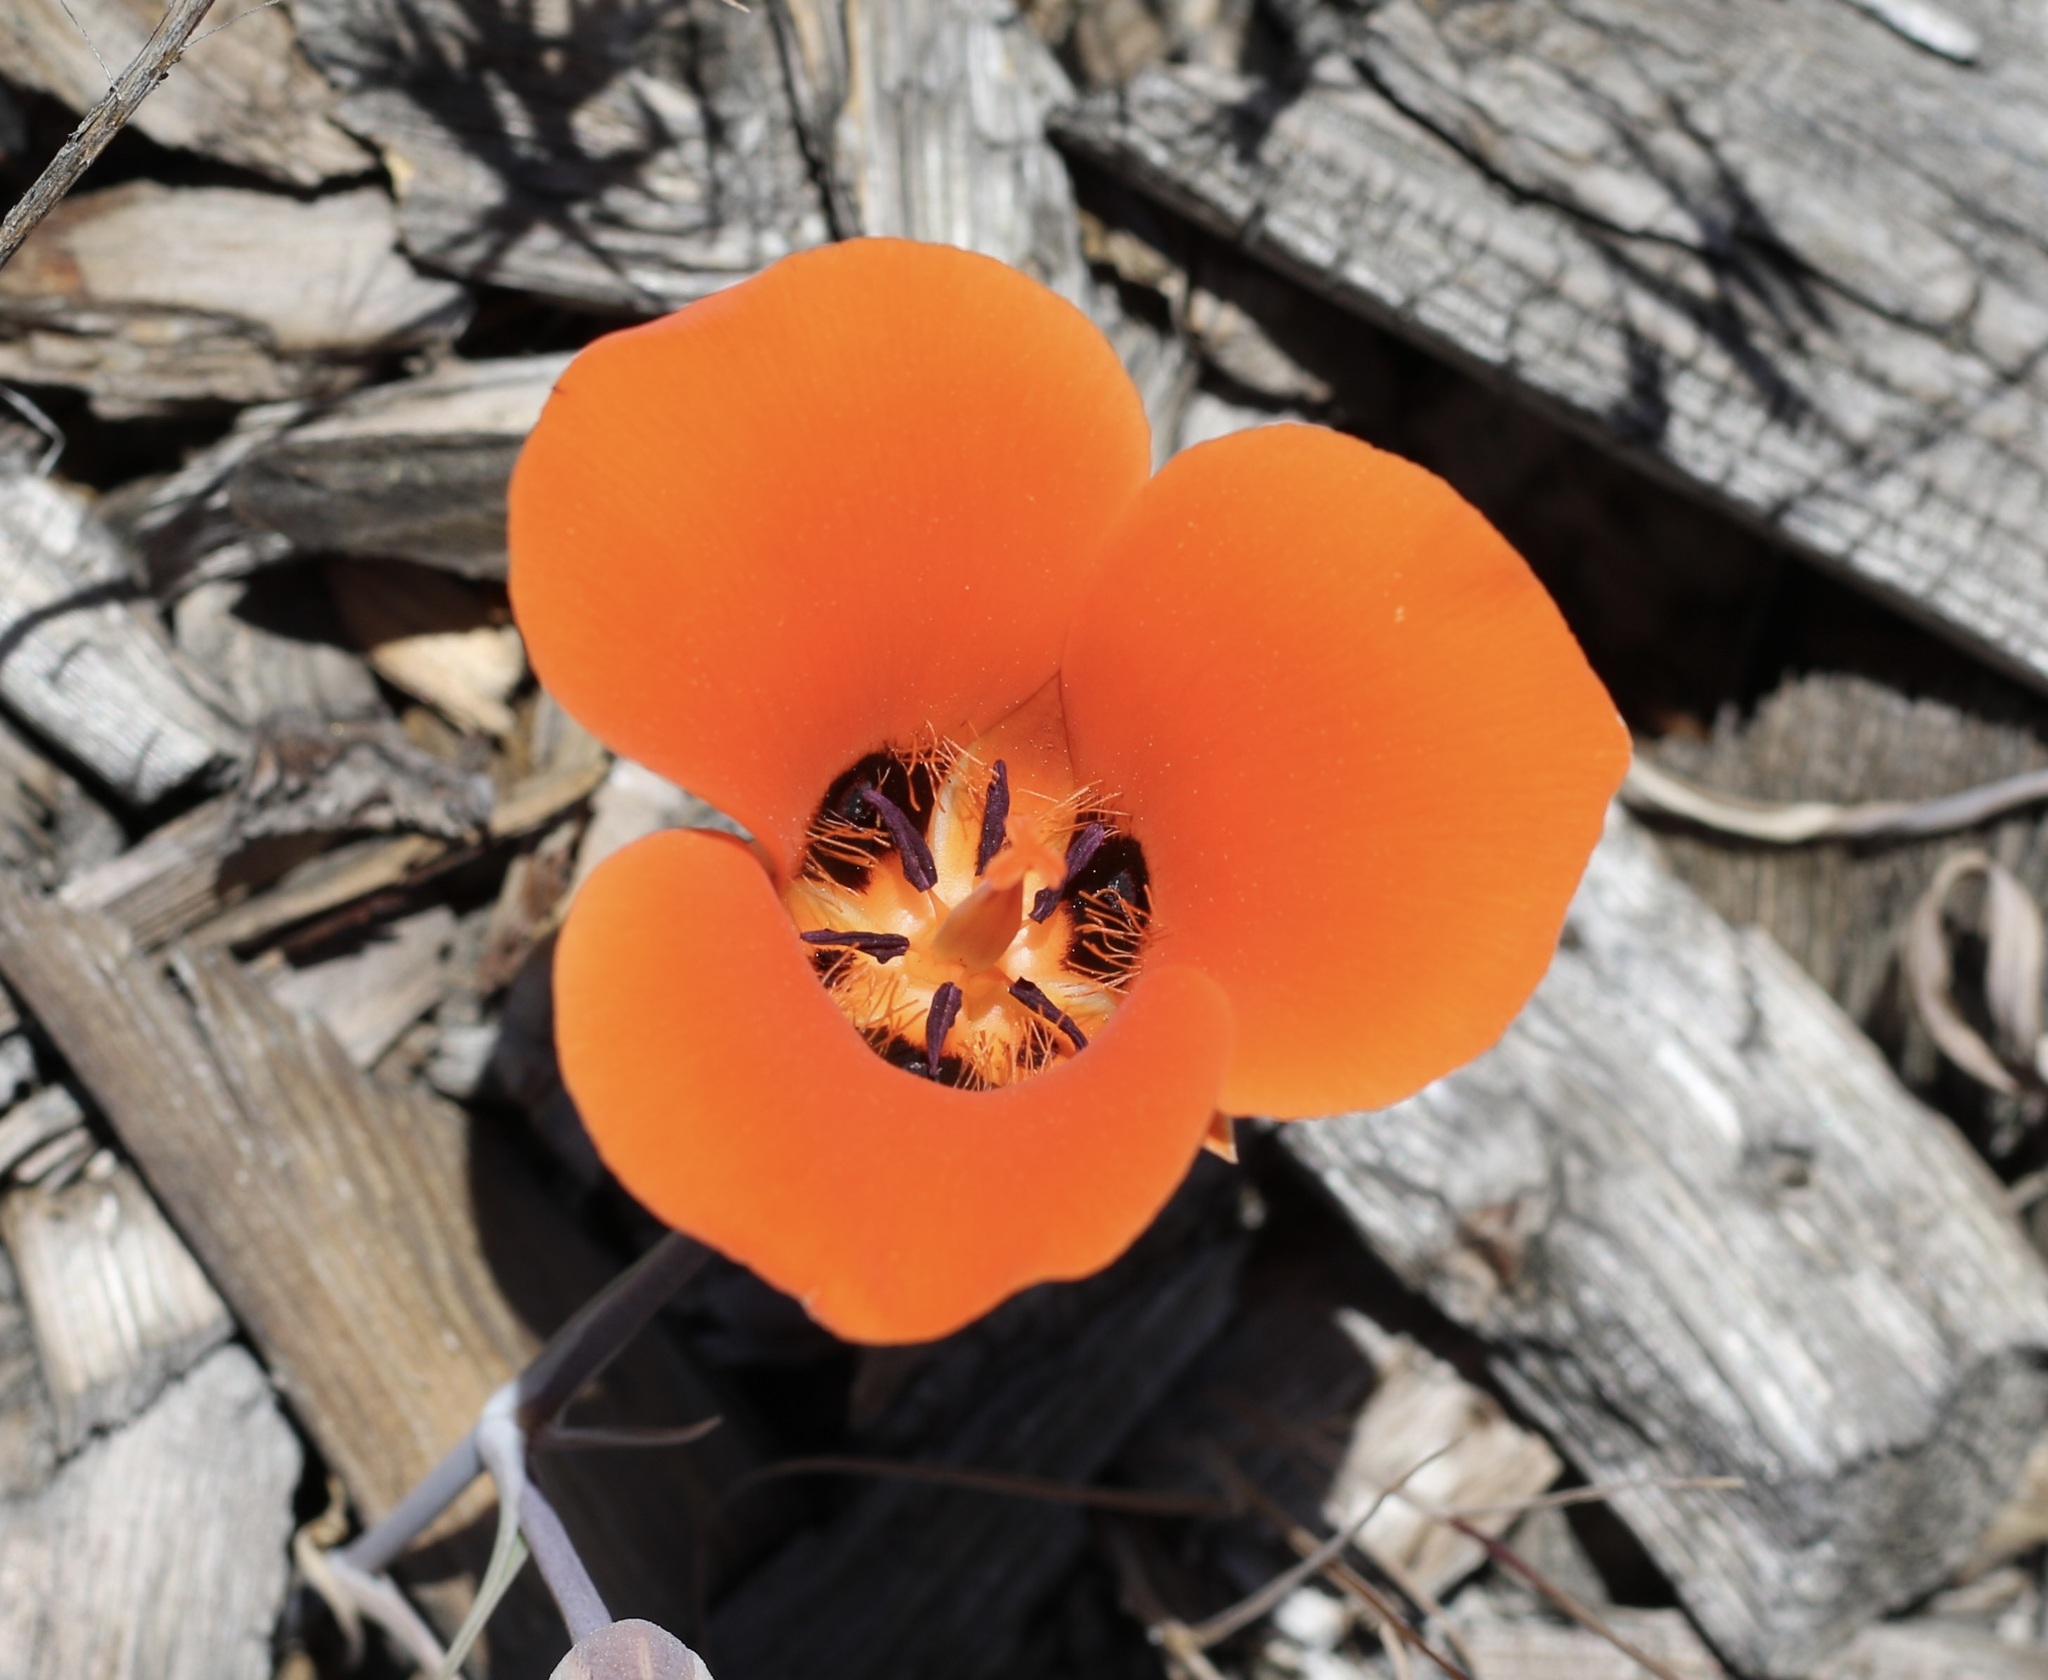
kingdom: Plantae
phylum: Tracheophyta
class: Liliopsida
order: Liliales
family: Liliaceae
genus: Calochortus
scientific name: Calochortus kennedyi
